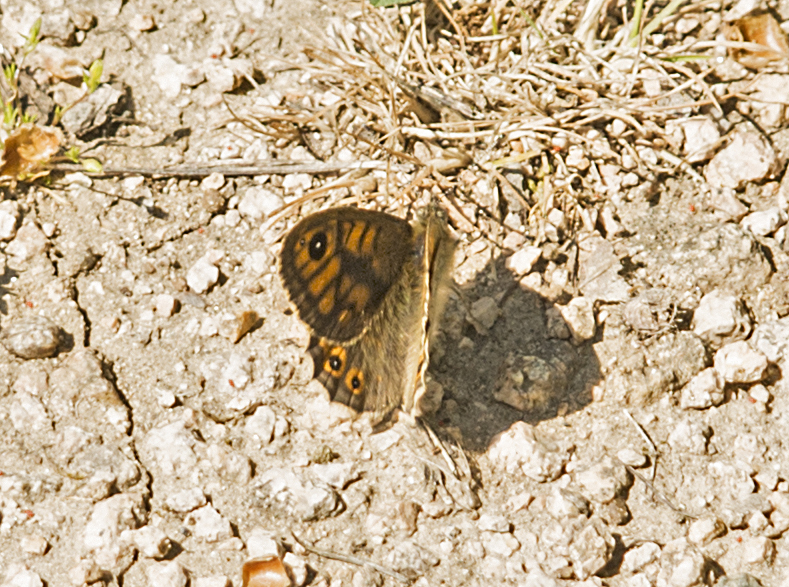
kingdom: Animalia
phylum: Arthropoda
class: Insecta
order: Lepidoptera
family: Nymphalidae
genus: Pararge
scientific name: Pararge Lasiommata megera
